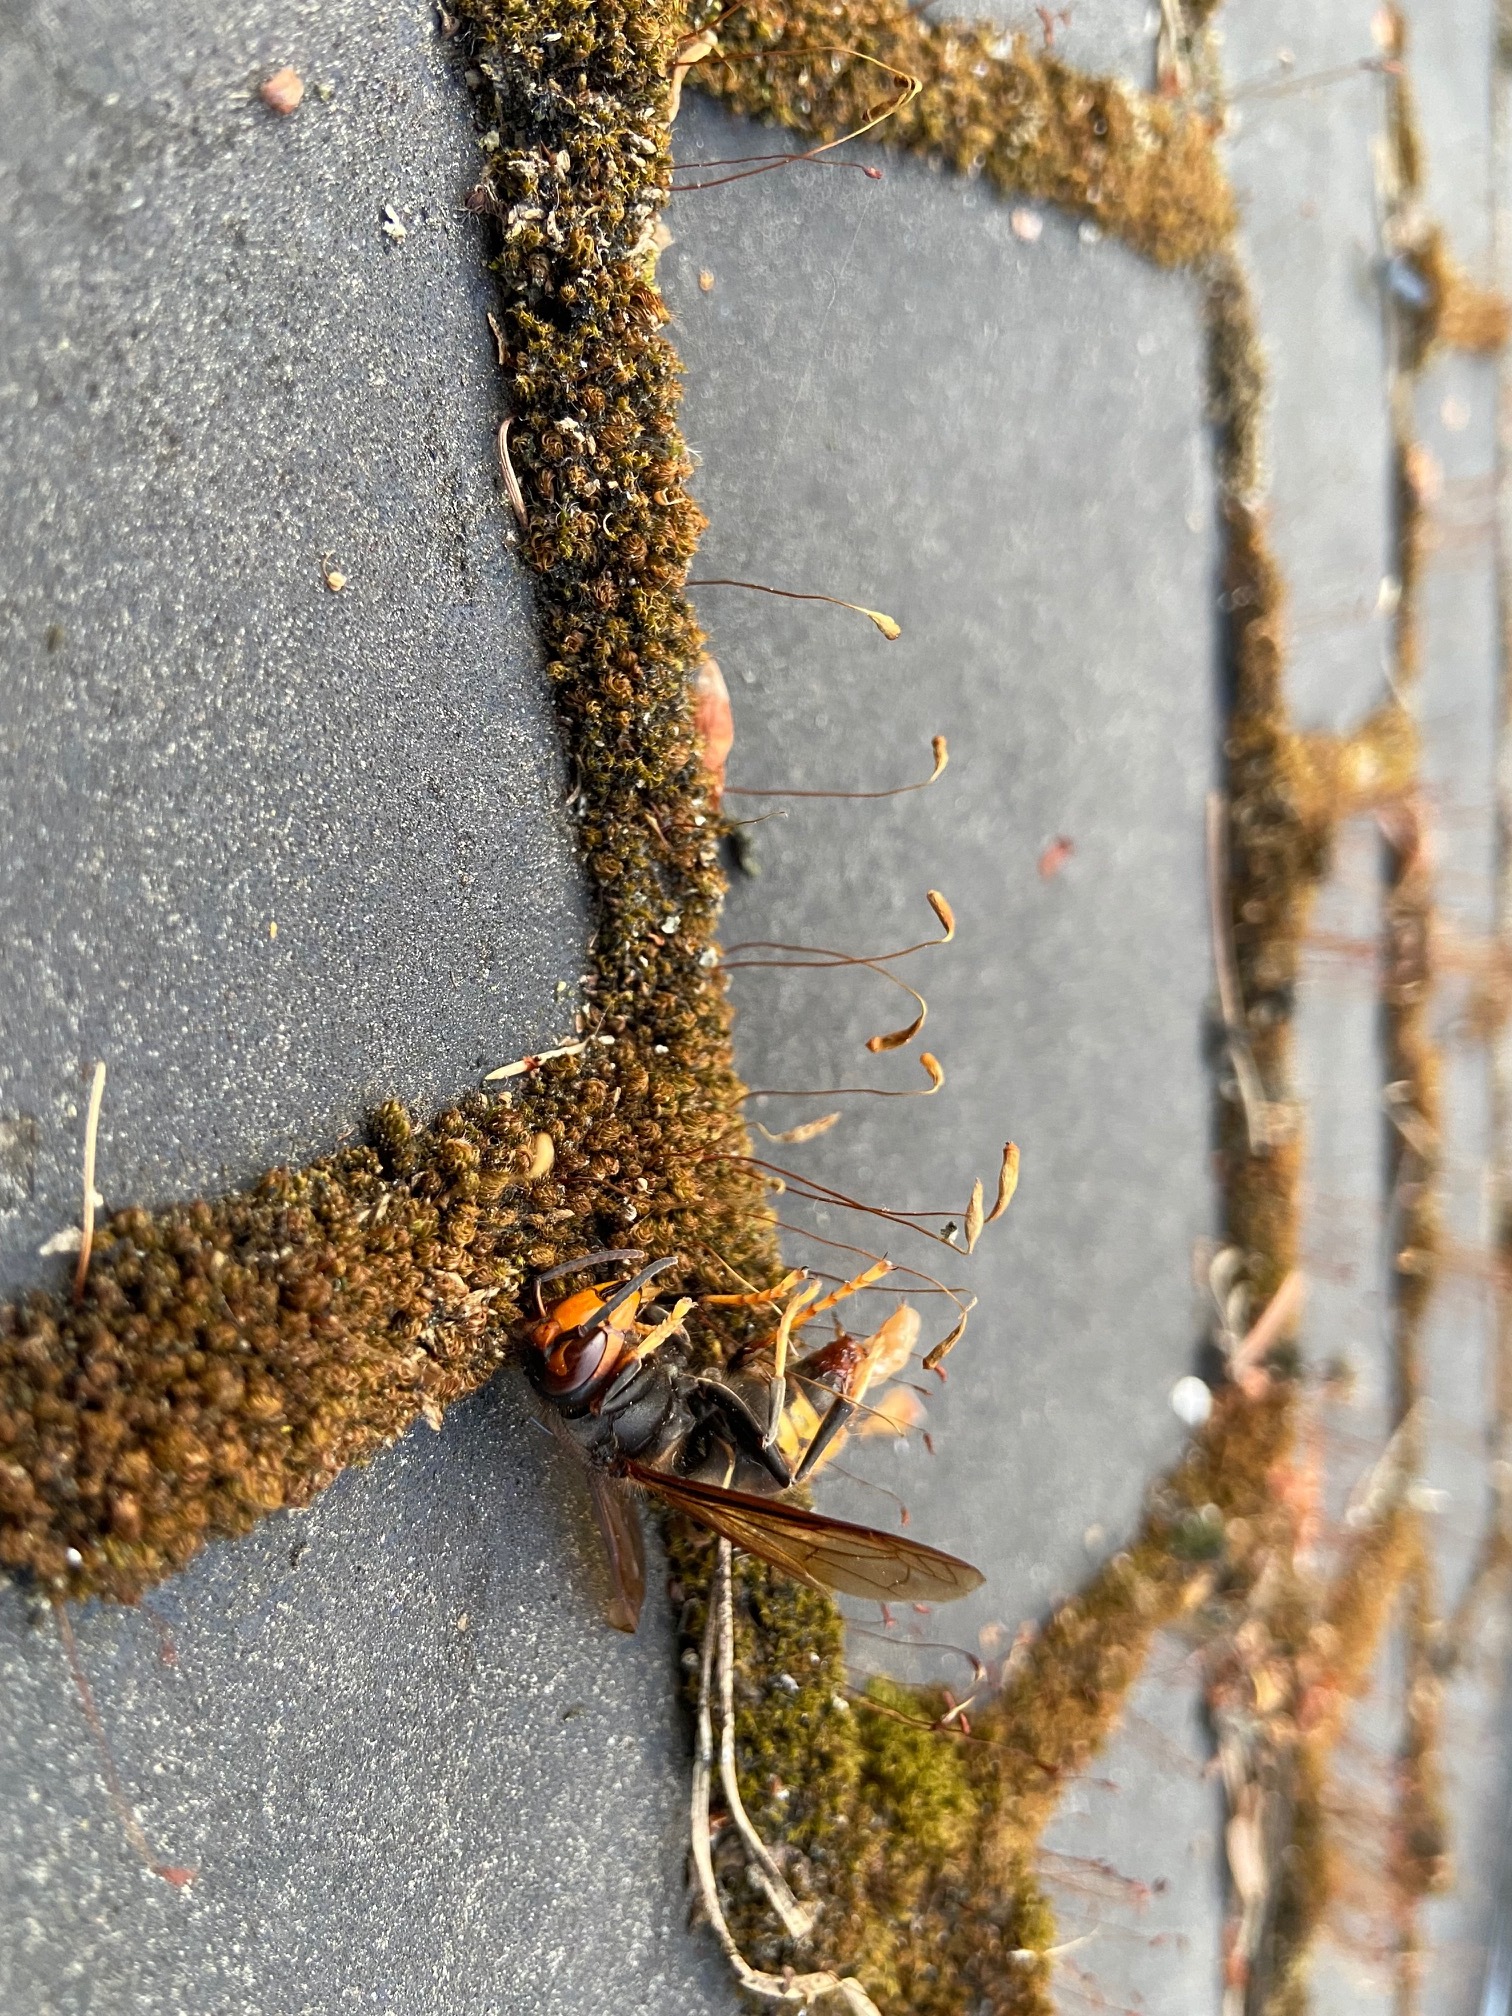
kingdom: Animalia
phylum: Arthropoda
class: Insecta
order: Hymenoptera
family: Vespidae
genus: Vespa
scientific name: Vespa velutina
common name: Asian hornet
